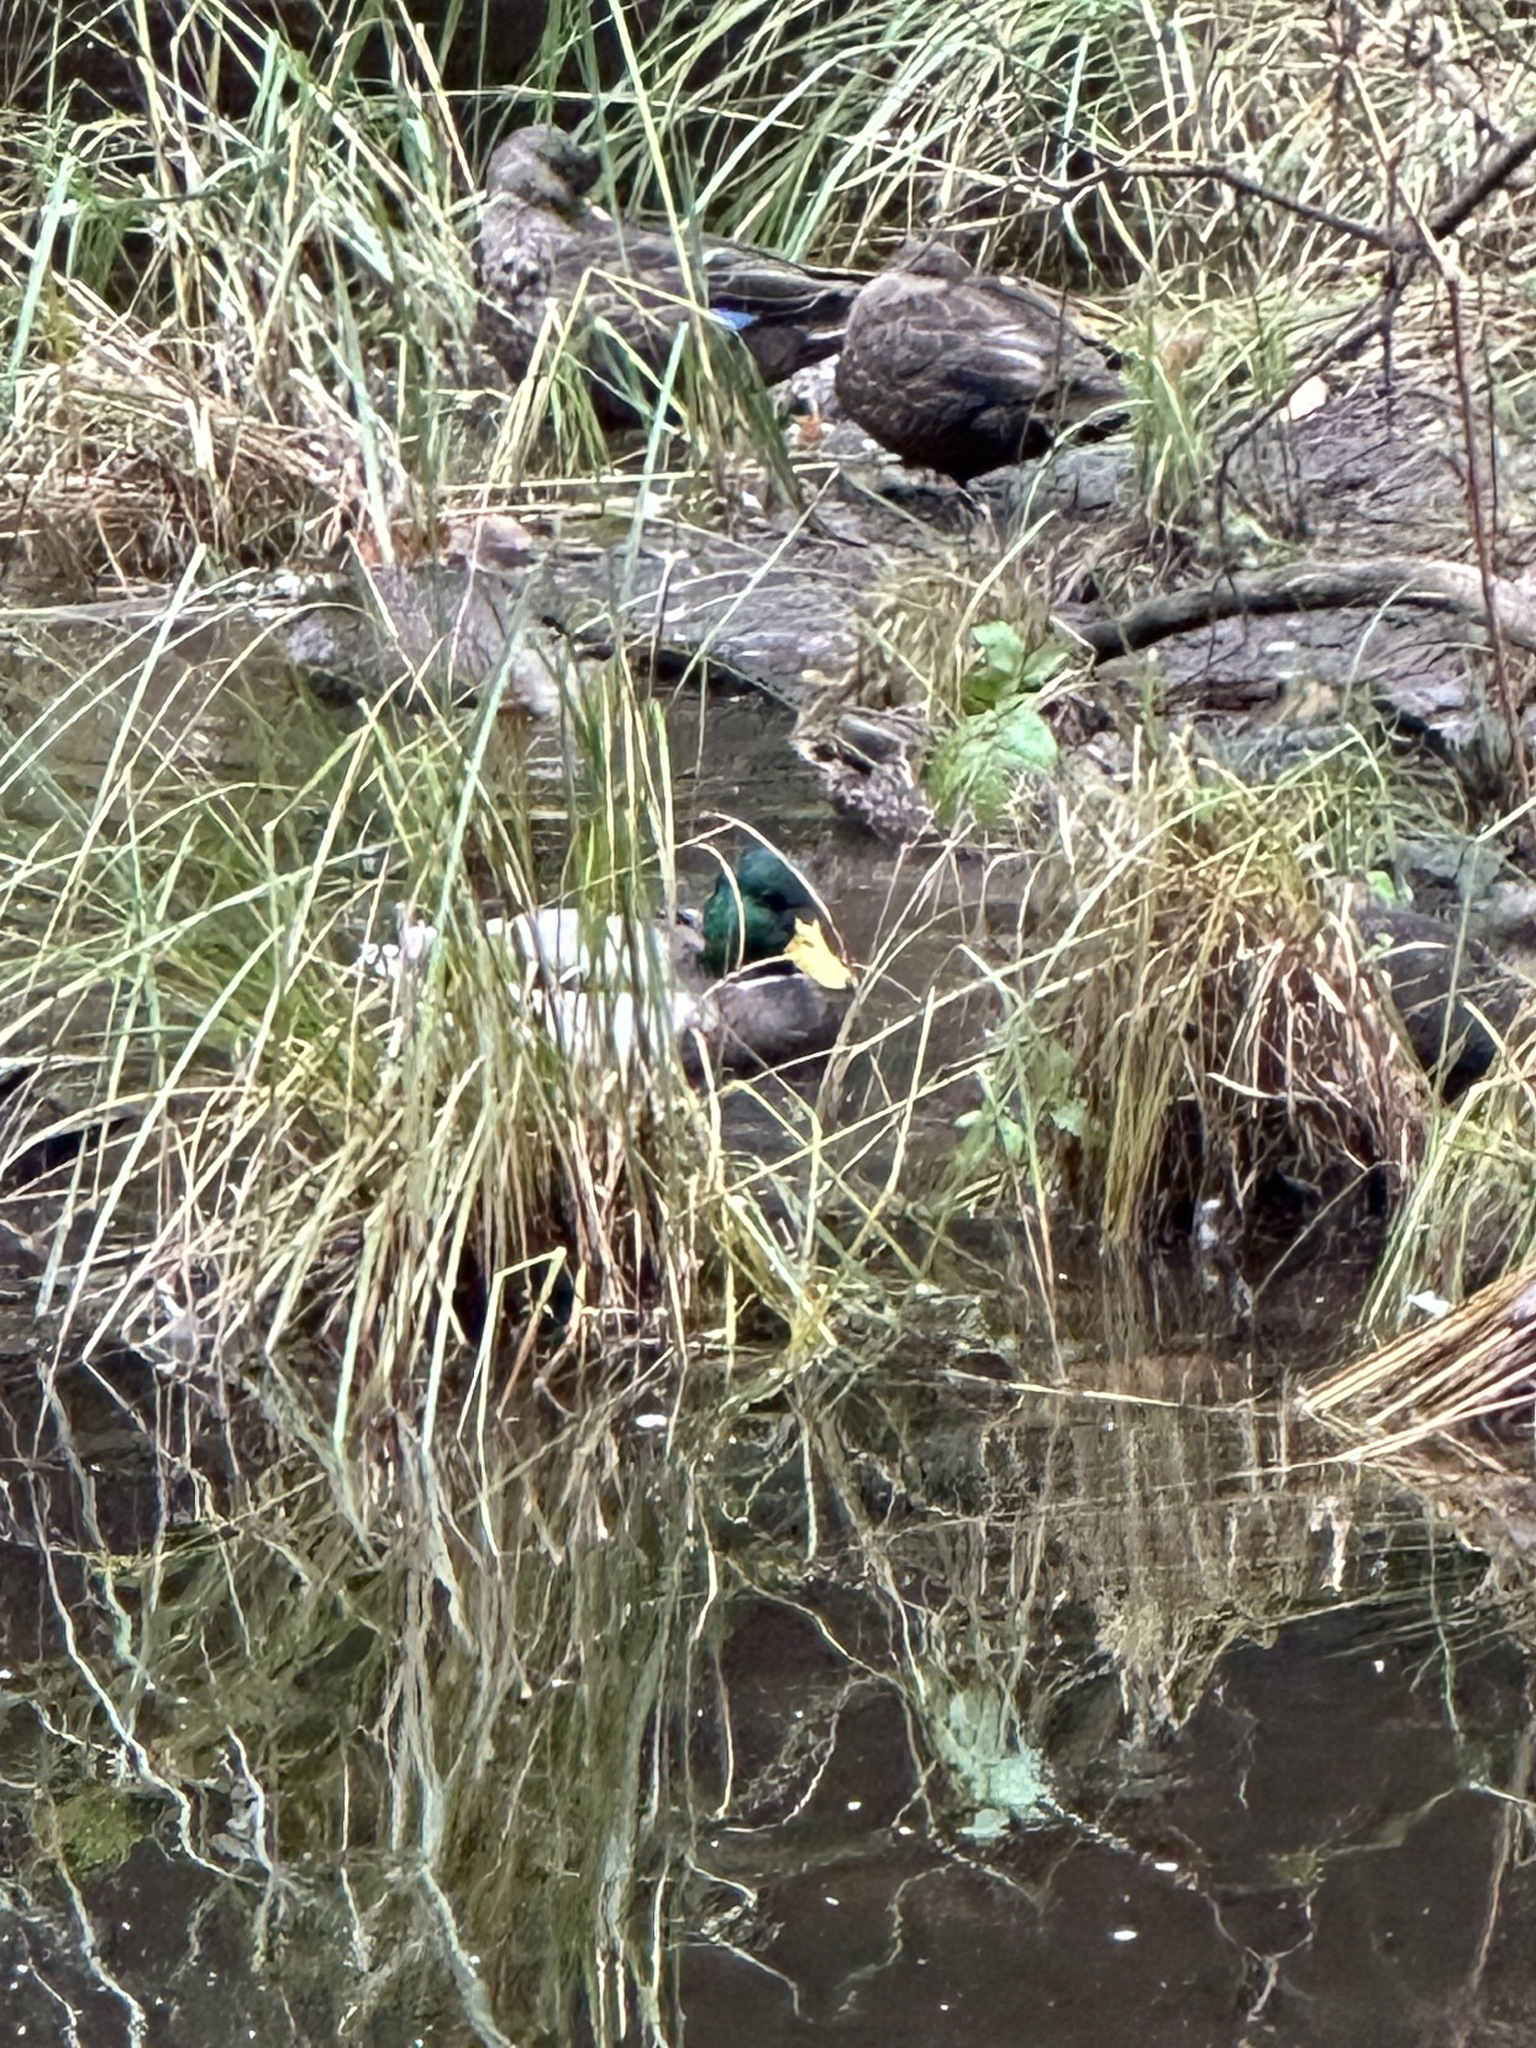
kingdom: Animalia
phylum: Chordata
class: Aves
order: Anseriformes
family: Anatidae
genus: Anas
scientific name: Anas platyrhynchos
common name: Mallard
